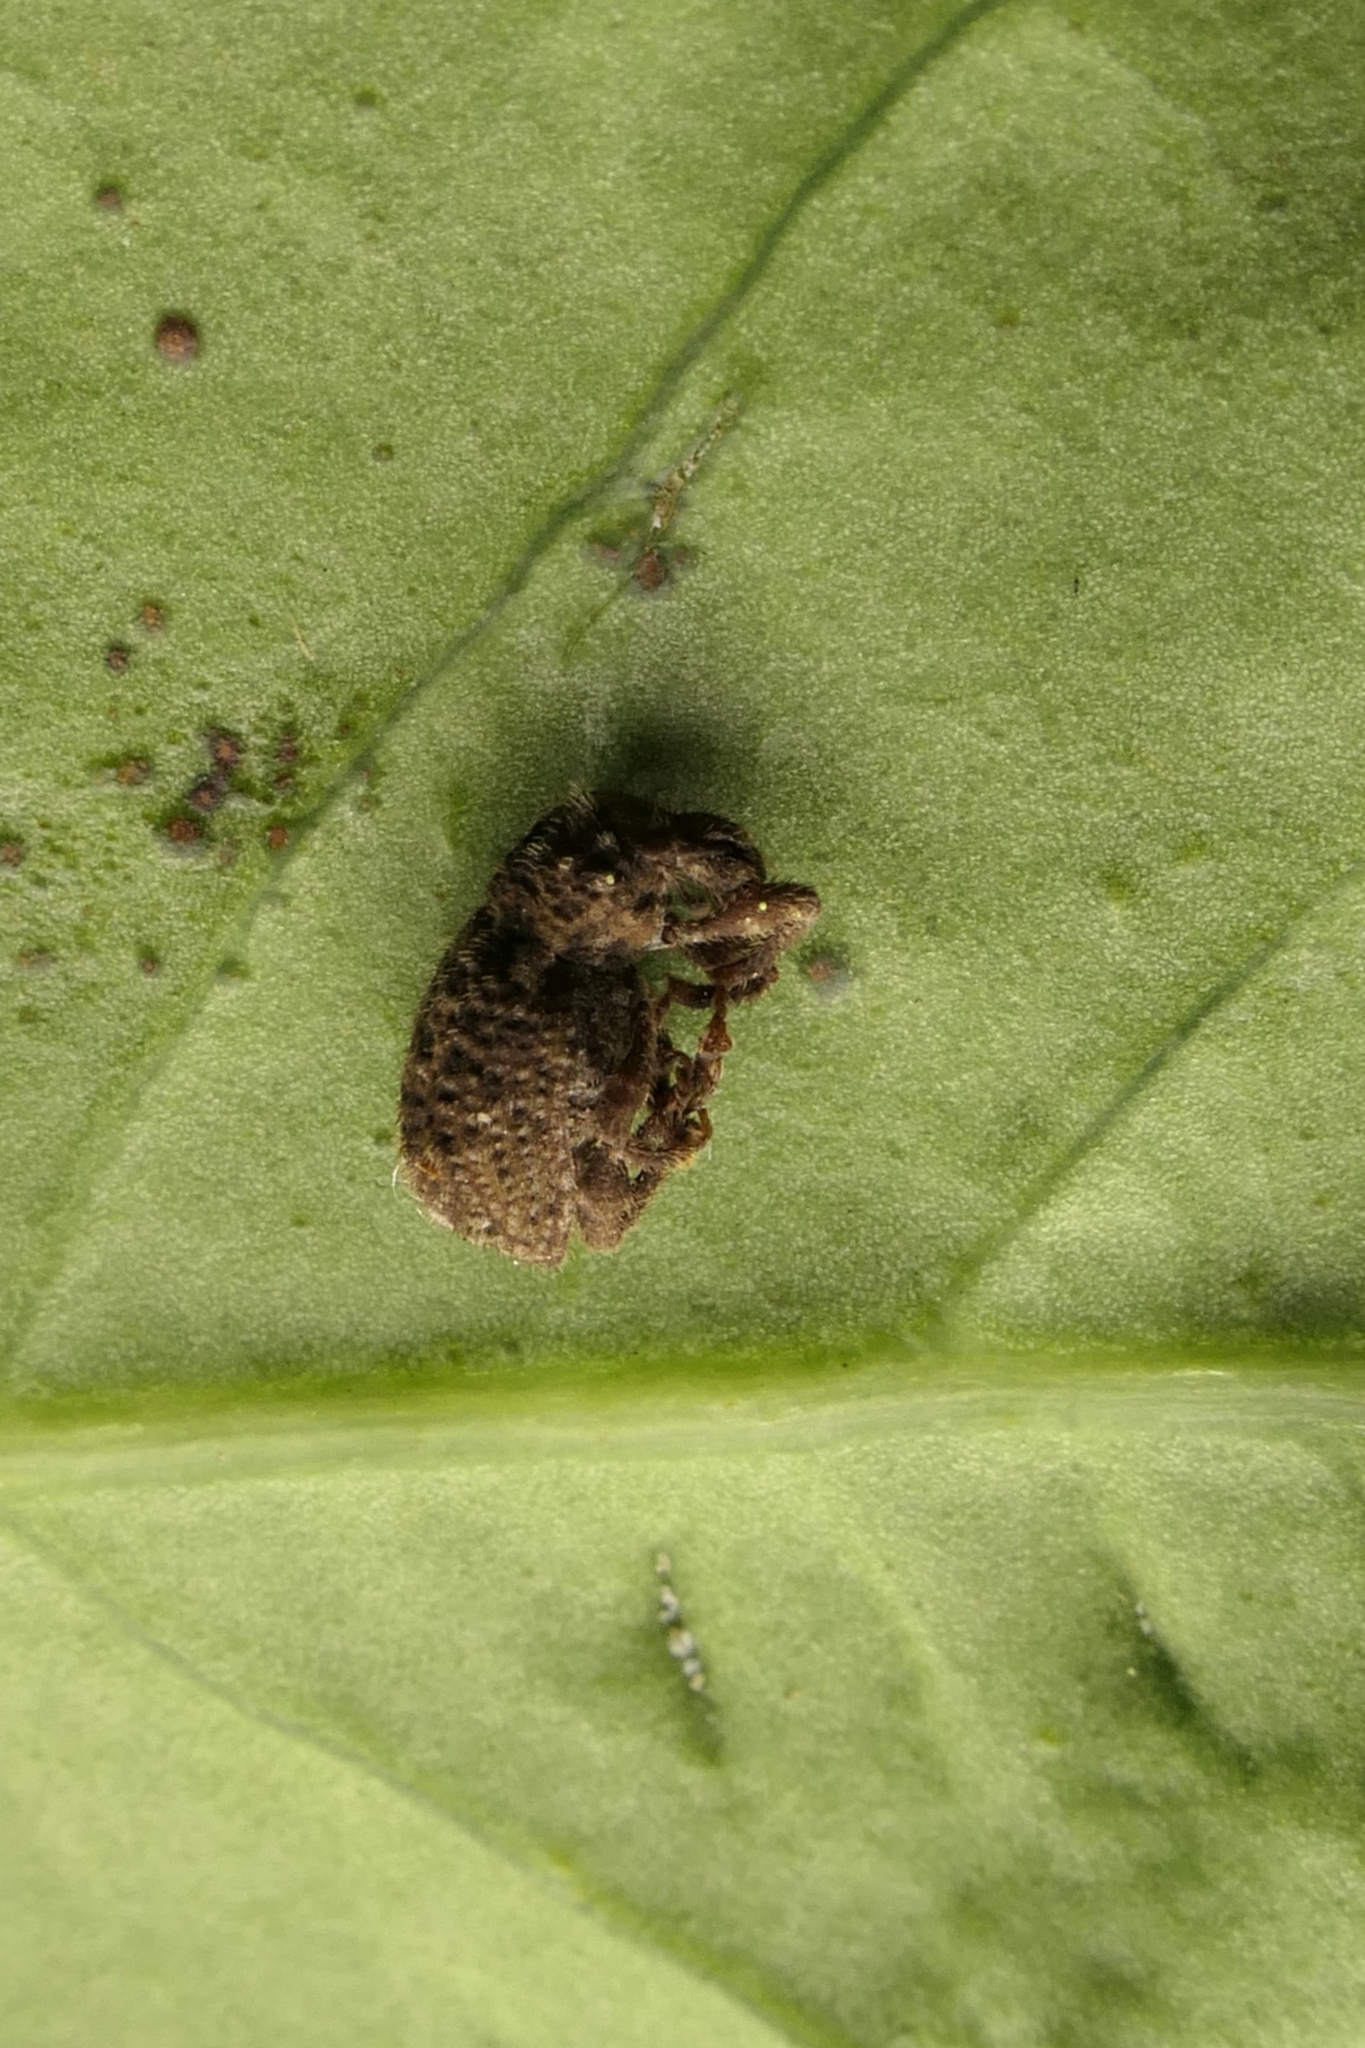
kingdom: Animalia
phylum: Arthropoda
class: Insecta
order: Coleoptera
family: Curculionidae
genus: Epitimetes
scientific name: Epitimetes grisealis
